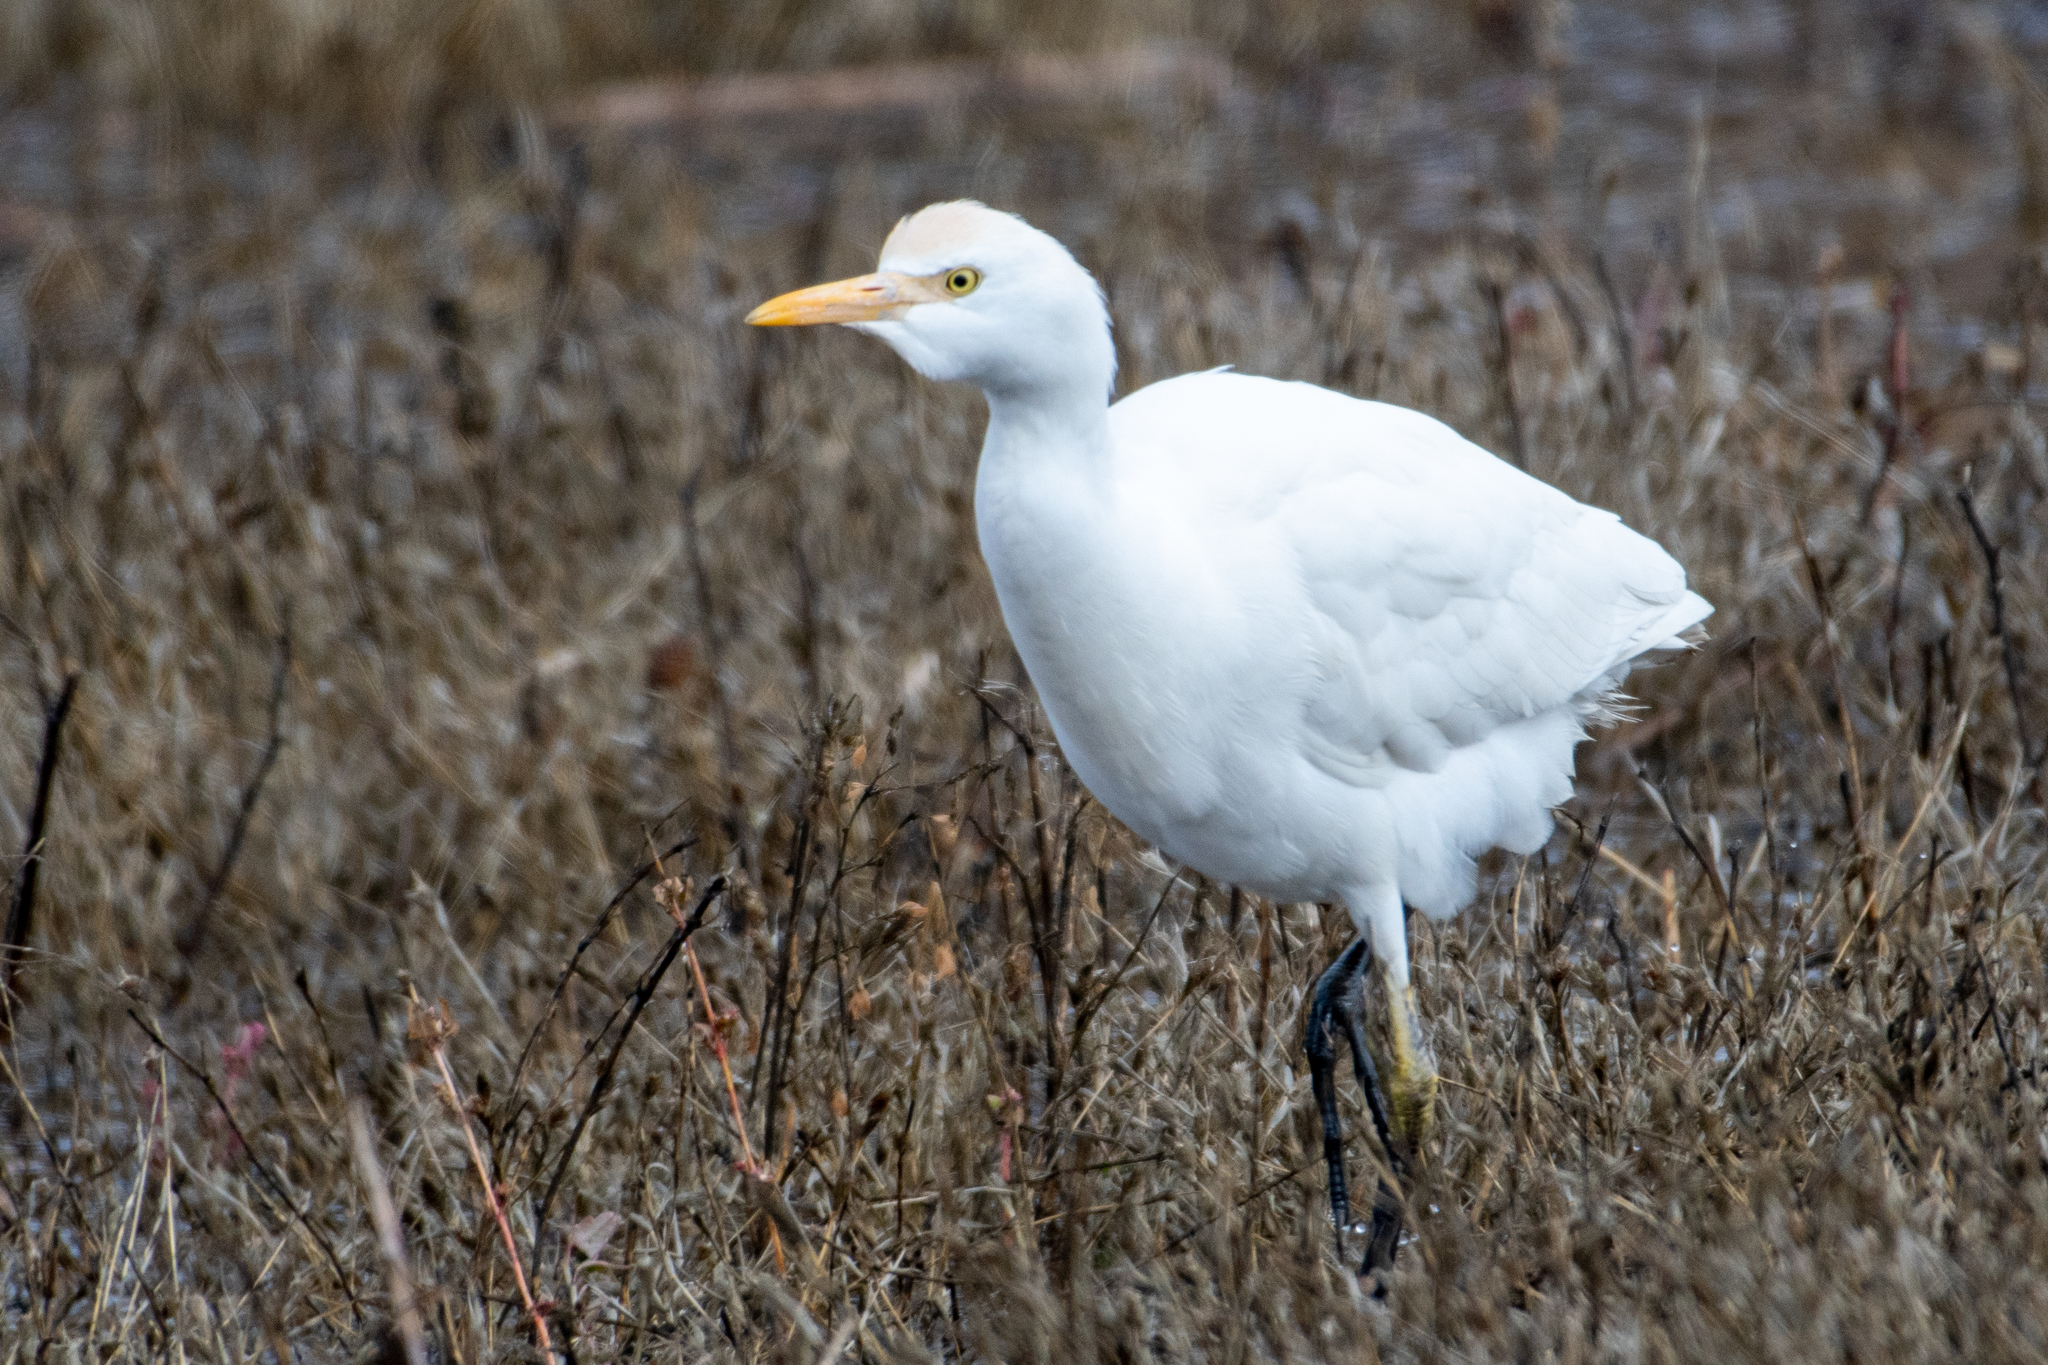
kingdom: Animalia
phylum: Chordata
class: Aves
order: Pelecaniformes
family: Ardeidae
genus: Bubulcus
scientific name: Bubulcus ibis
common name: Cattle egret
